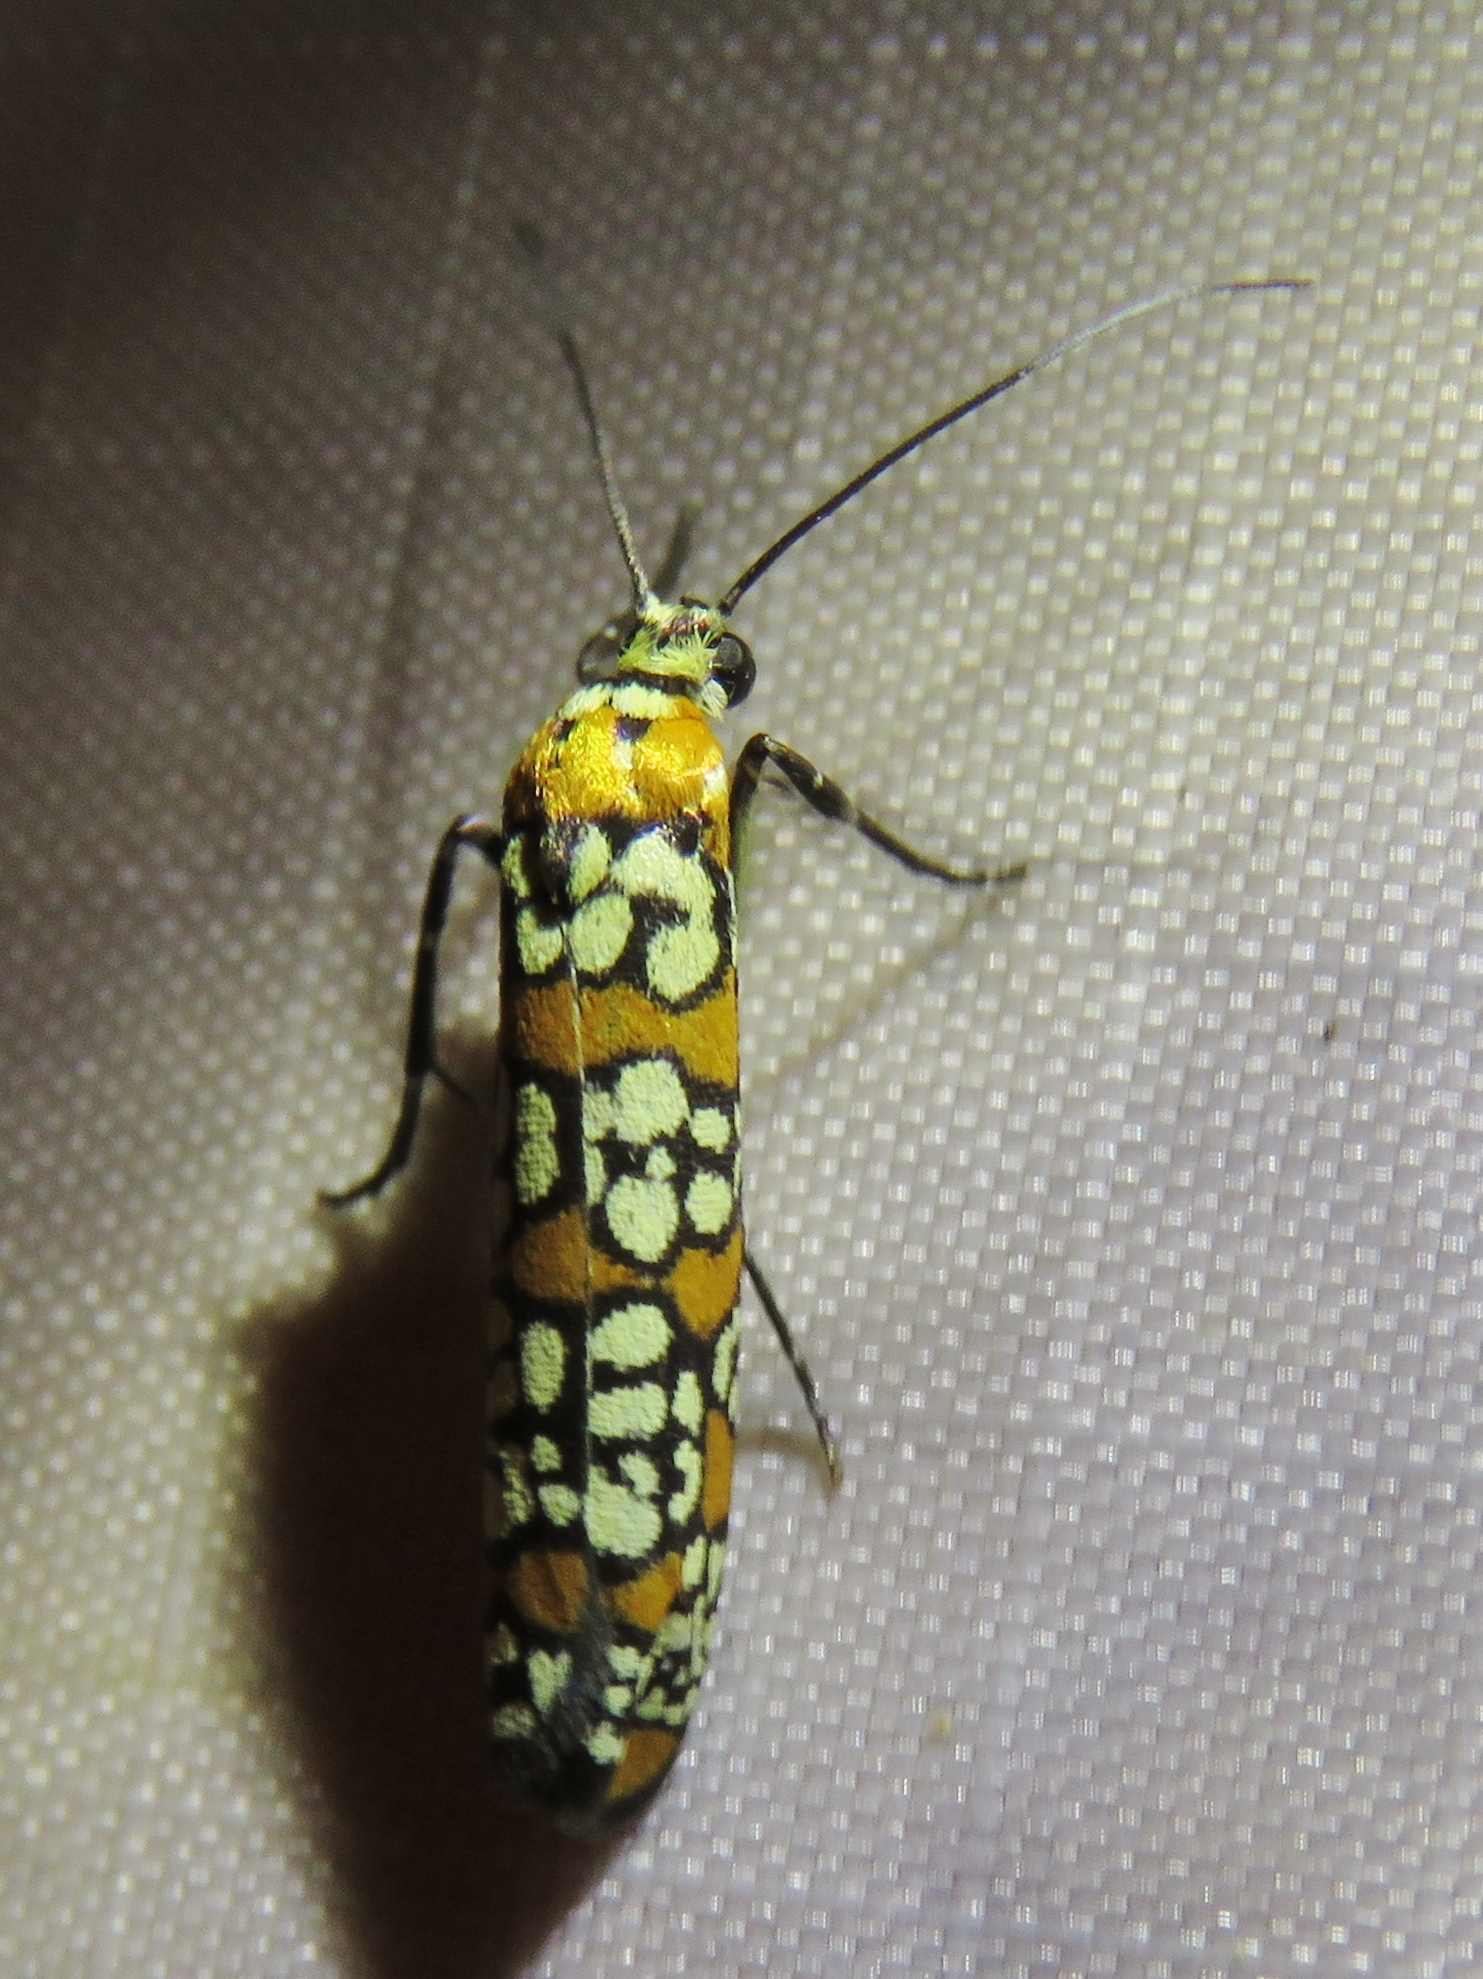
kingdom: Animalia
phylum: Arthropoda
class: Insecta
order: Lepidoptera
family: Attevidae
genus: Atteva
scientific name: Atteva punctella
